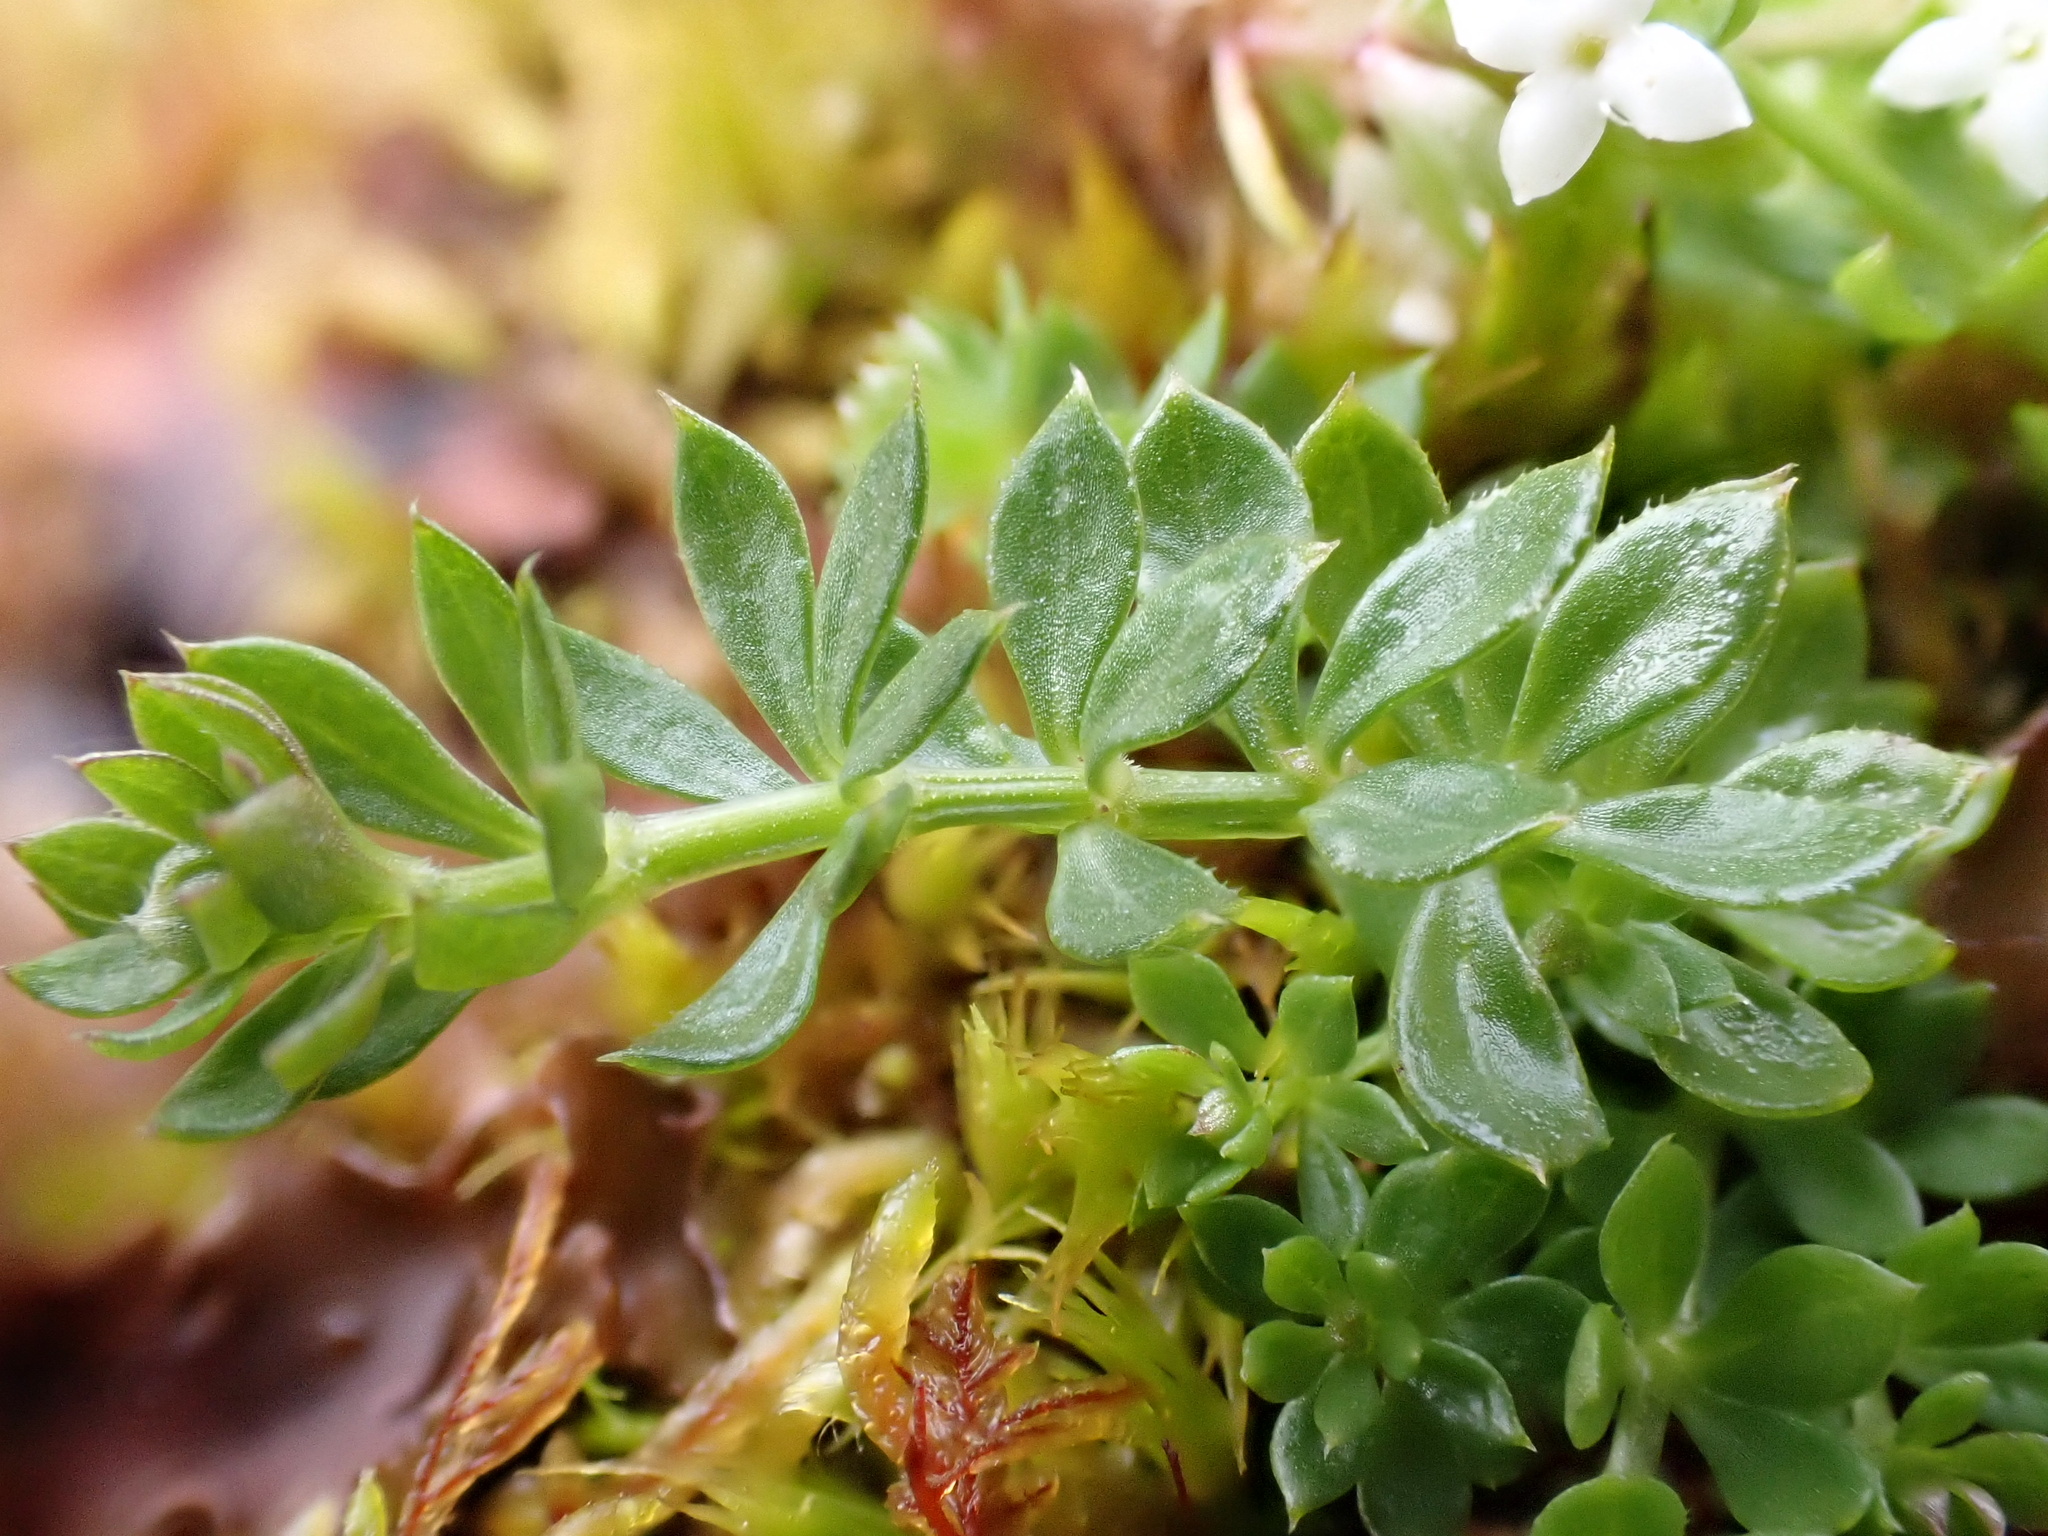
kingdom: Plantae
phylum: Tracheophyta
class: Magnoliopsida
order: Gentianales
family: Rubiaceae
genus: Galium
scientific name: Galium saxatile
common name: Heath bedstraw
